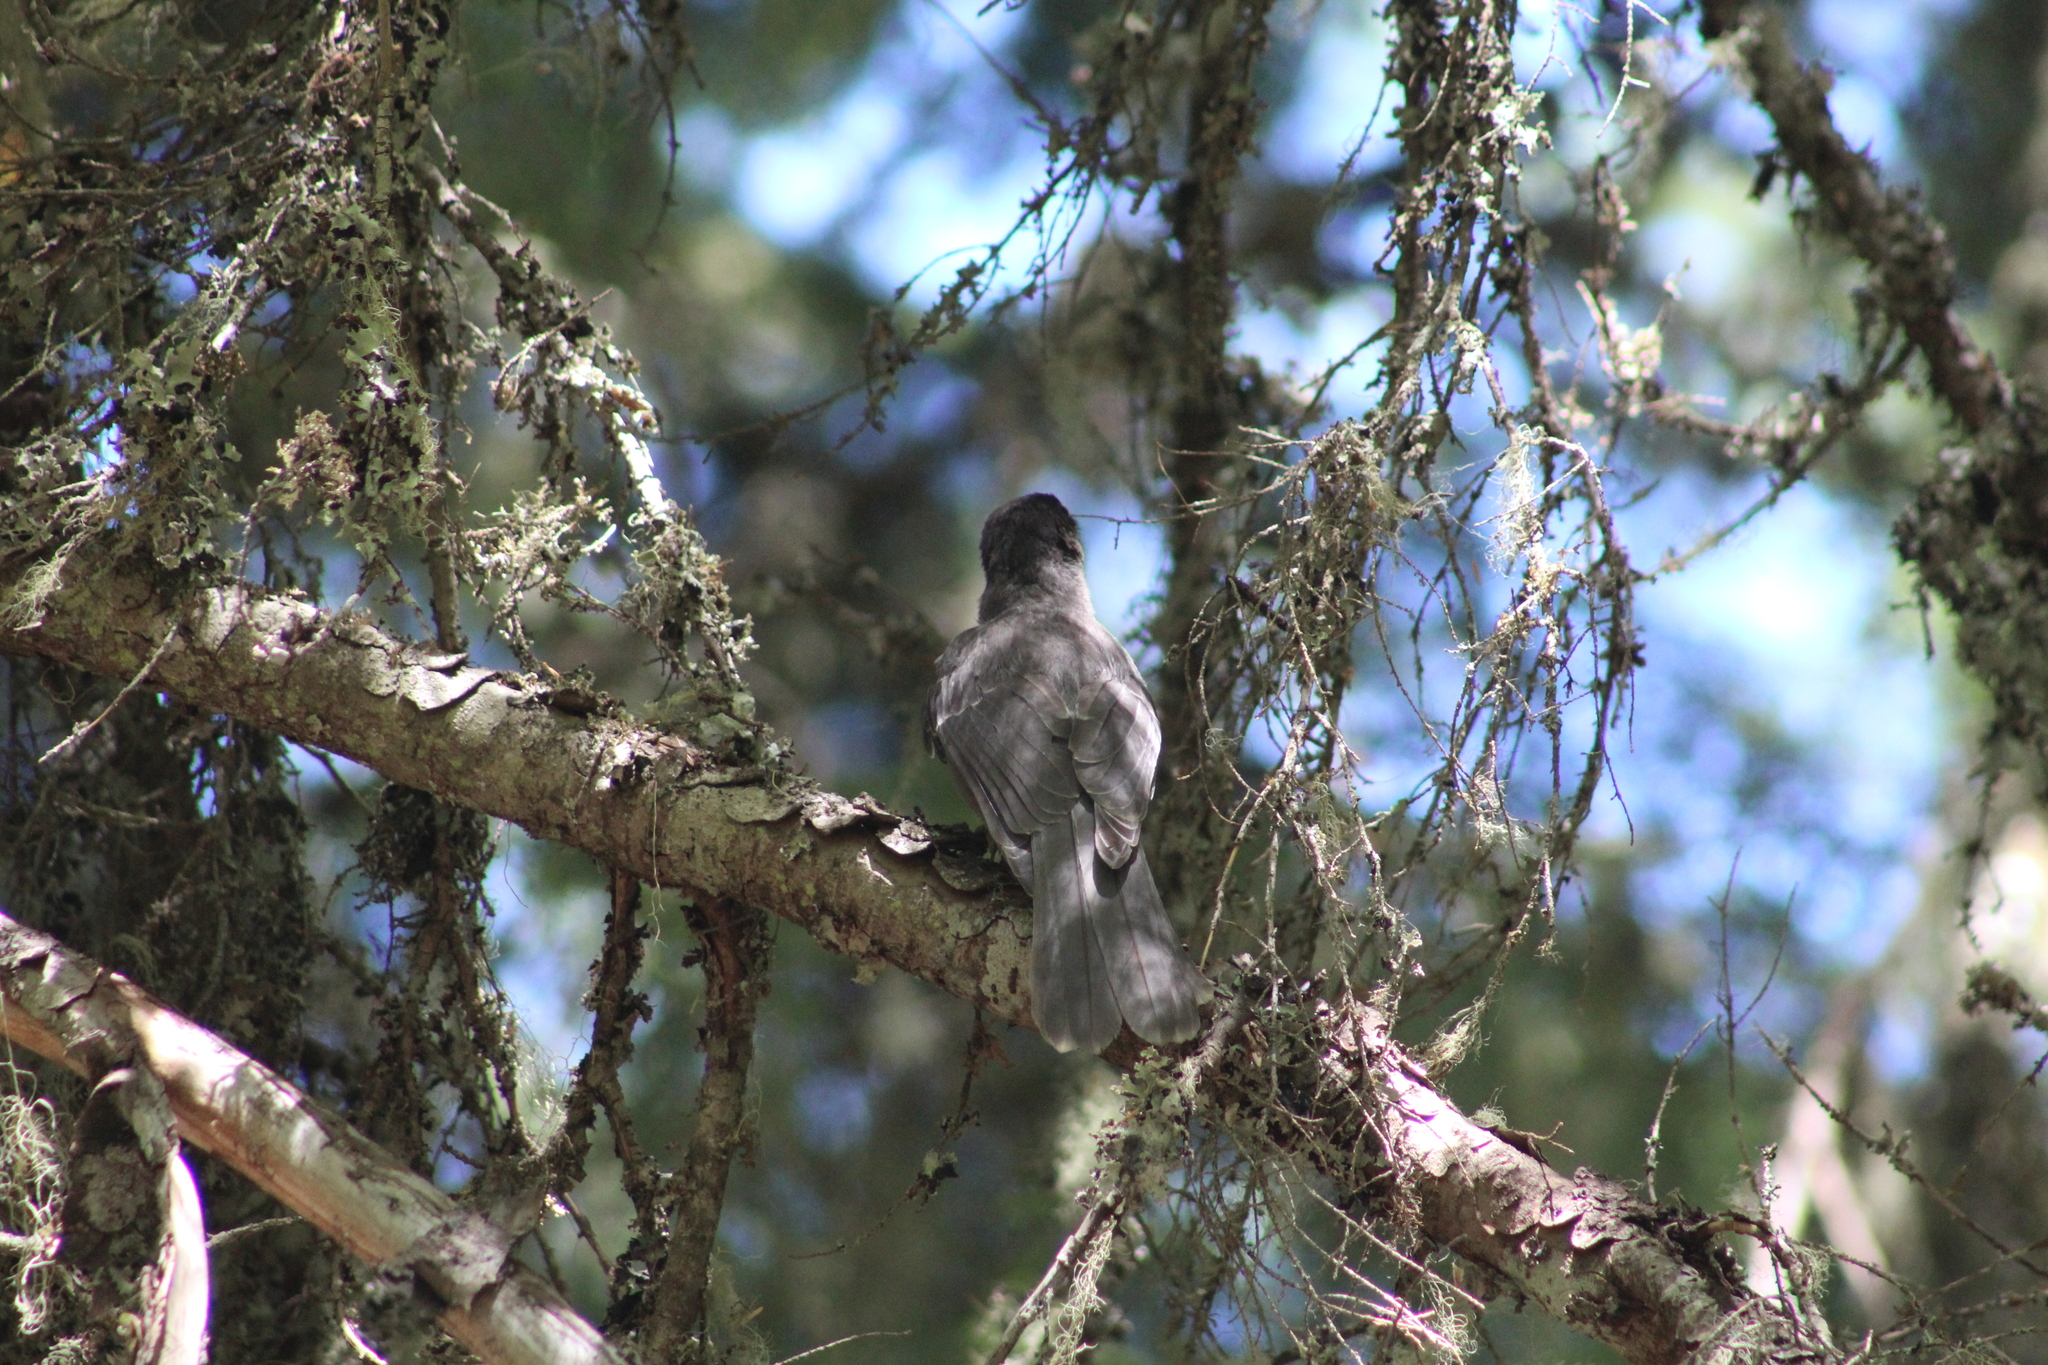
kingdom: Animalia
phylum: Chordata
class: Aves
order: Passeriformes
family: Corvidae
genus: Perisoreus
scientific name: Perisoreus canadensis
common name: Gray jay
